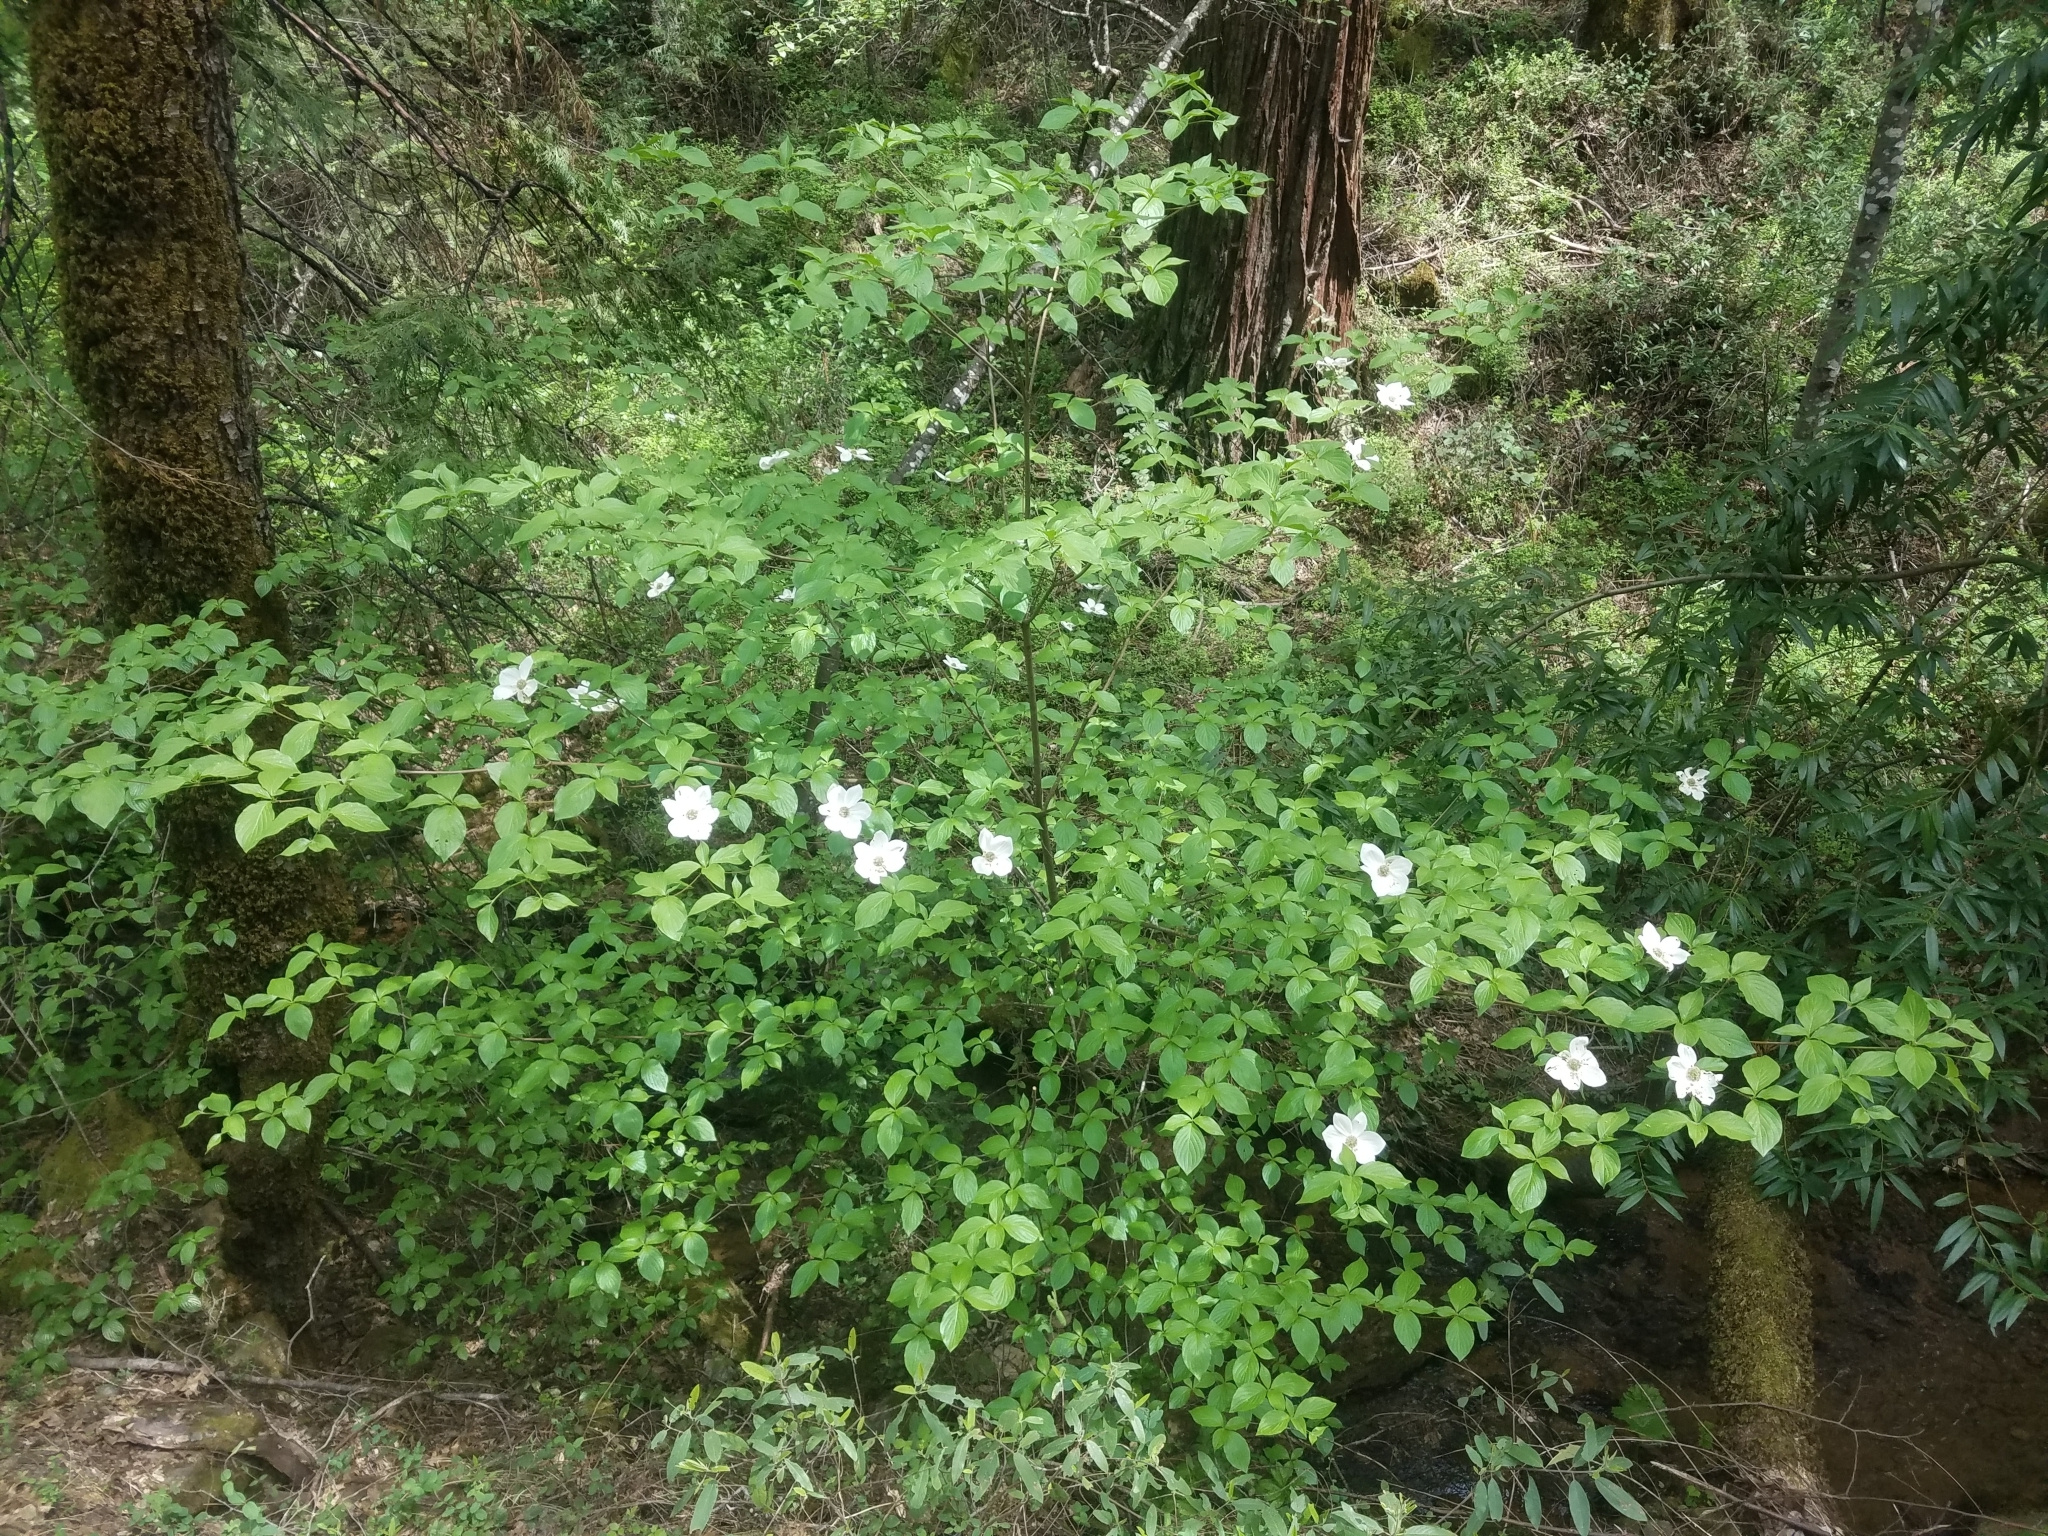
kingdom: Plantae
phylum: Tracheophyta
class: Magnoliopsida
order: Cornales
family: Cornaceae
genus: Cornus
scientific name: Cornus nuttallii
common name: Pacific dogwood
